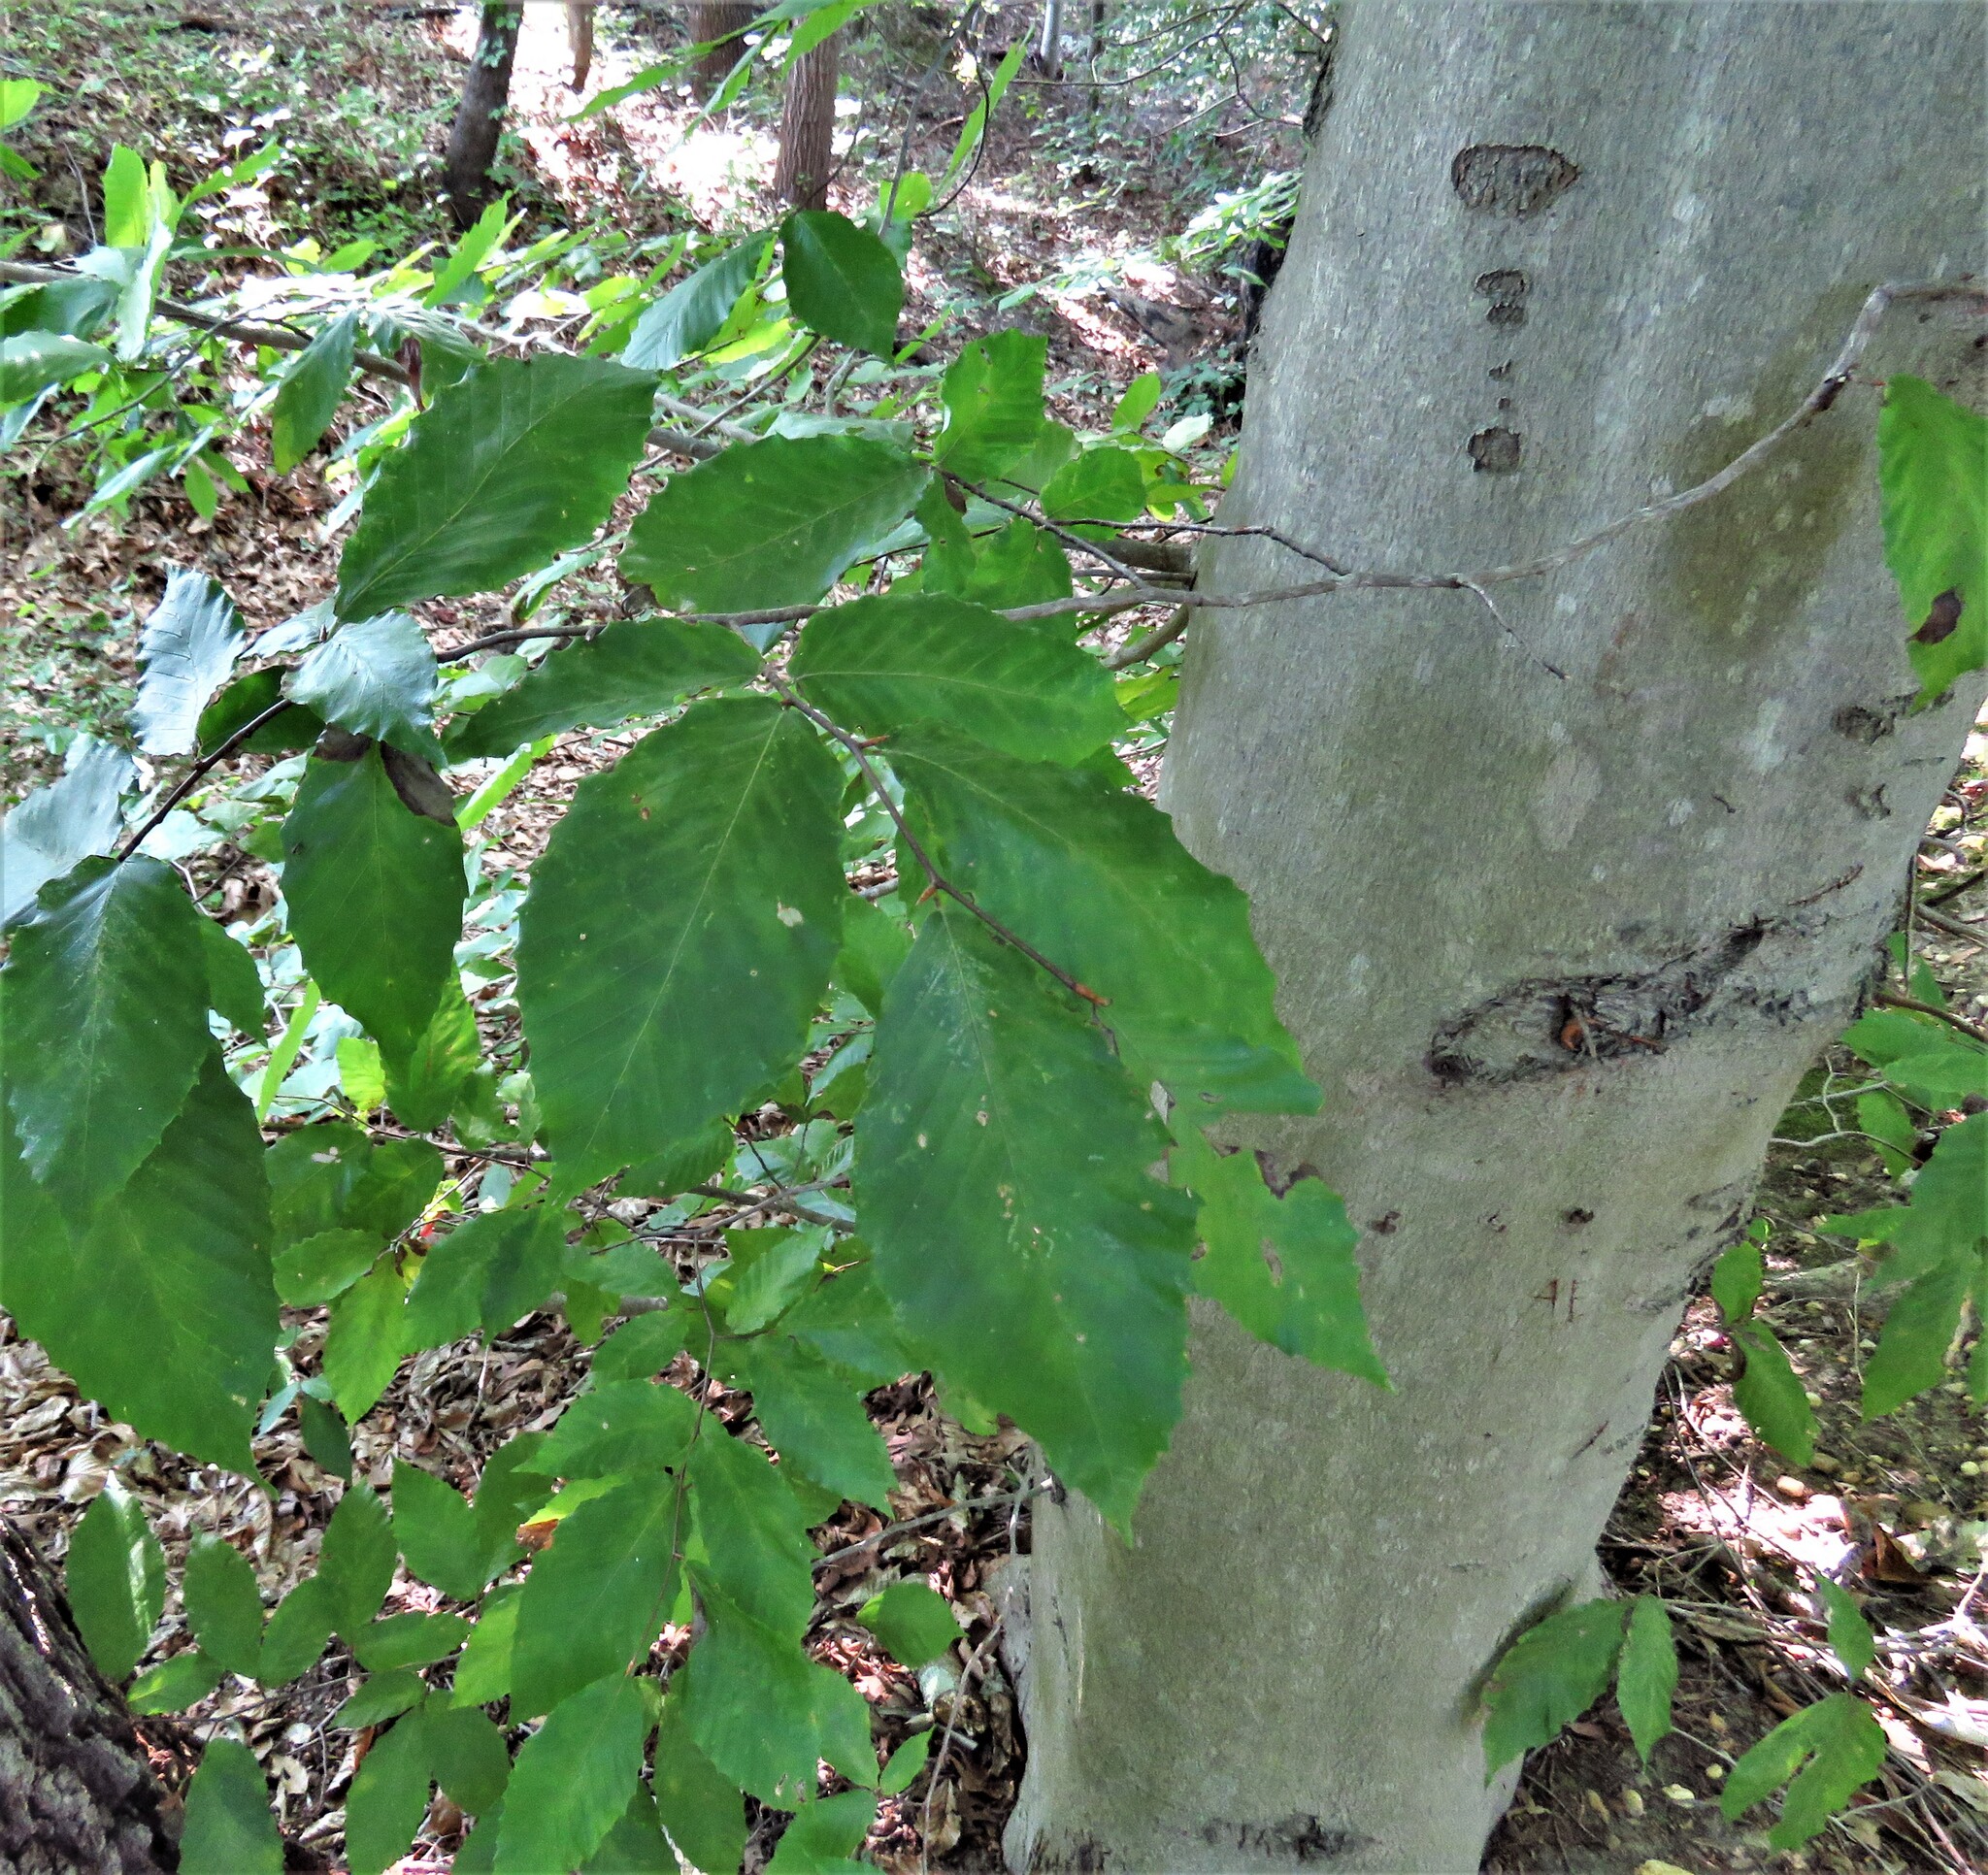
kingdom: Plantae
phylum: Tracheophyta
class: Magnoliopsida
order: Fagales
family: Fagaceae
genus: Fagus
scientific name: Fagus grandifolia
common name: American beech
